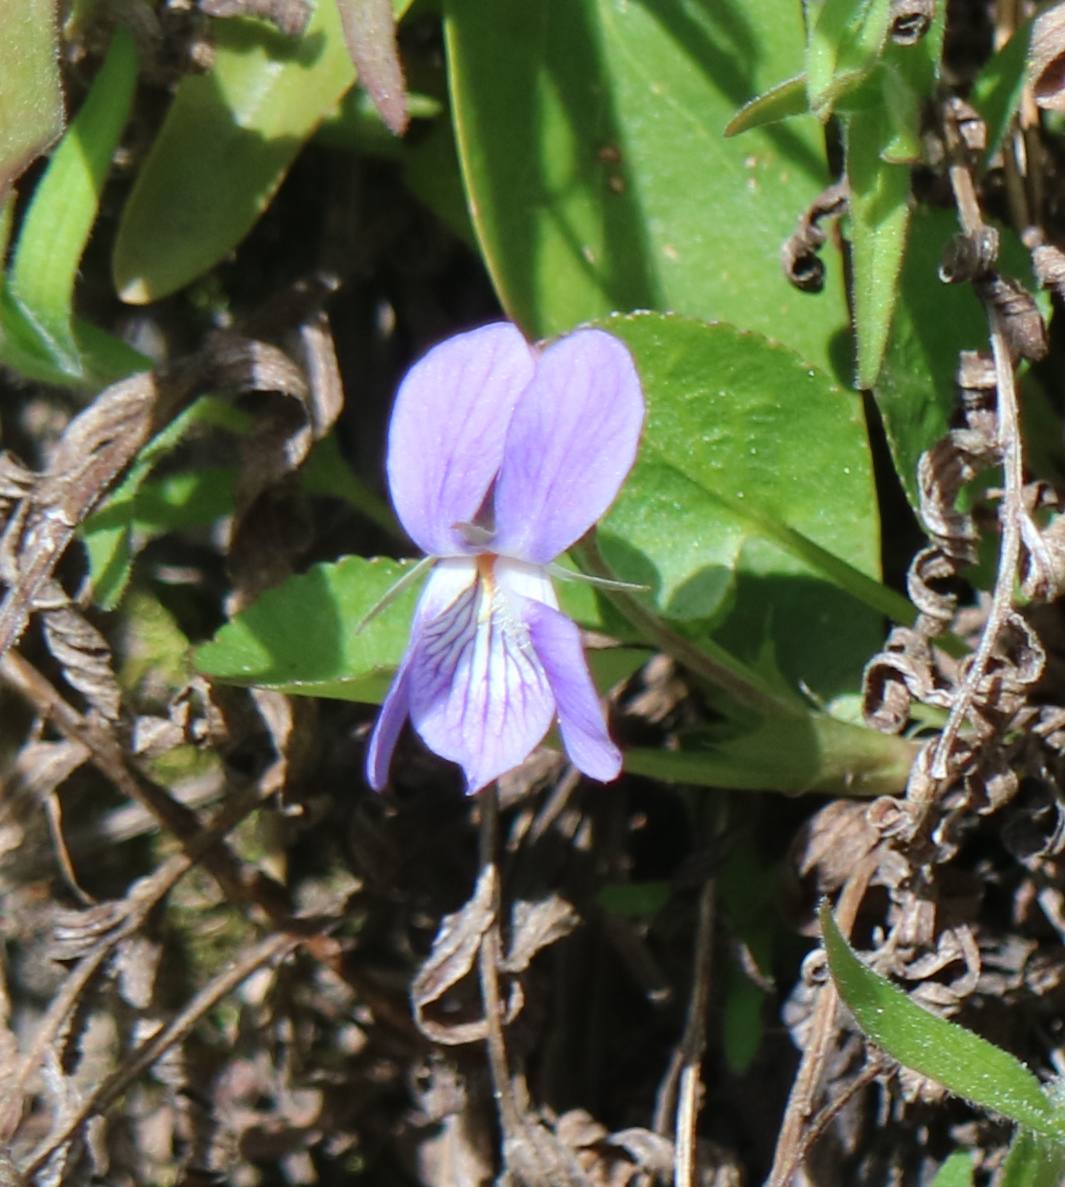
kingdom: Plantae
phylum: Tracheophyta
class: Magnoliopsida
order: Malpighiales
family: Violaceae
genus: Viola
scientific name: Viola adunca
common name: Sand violet
